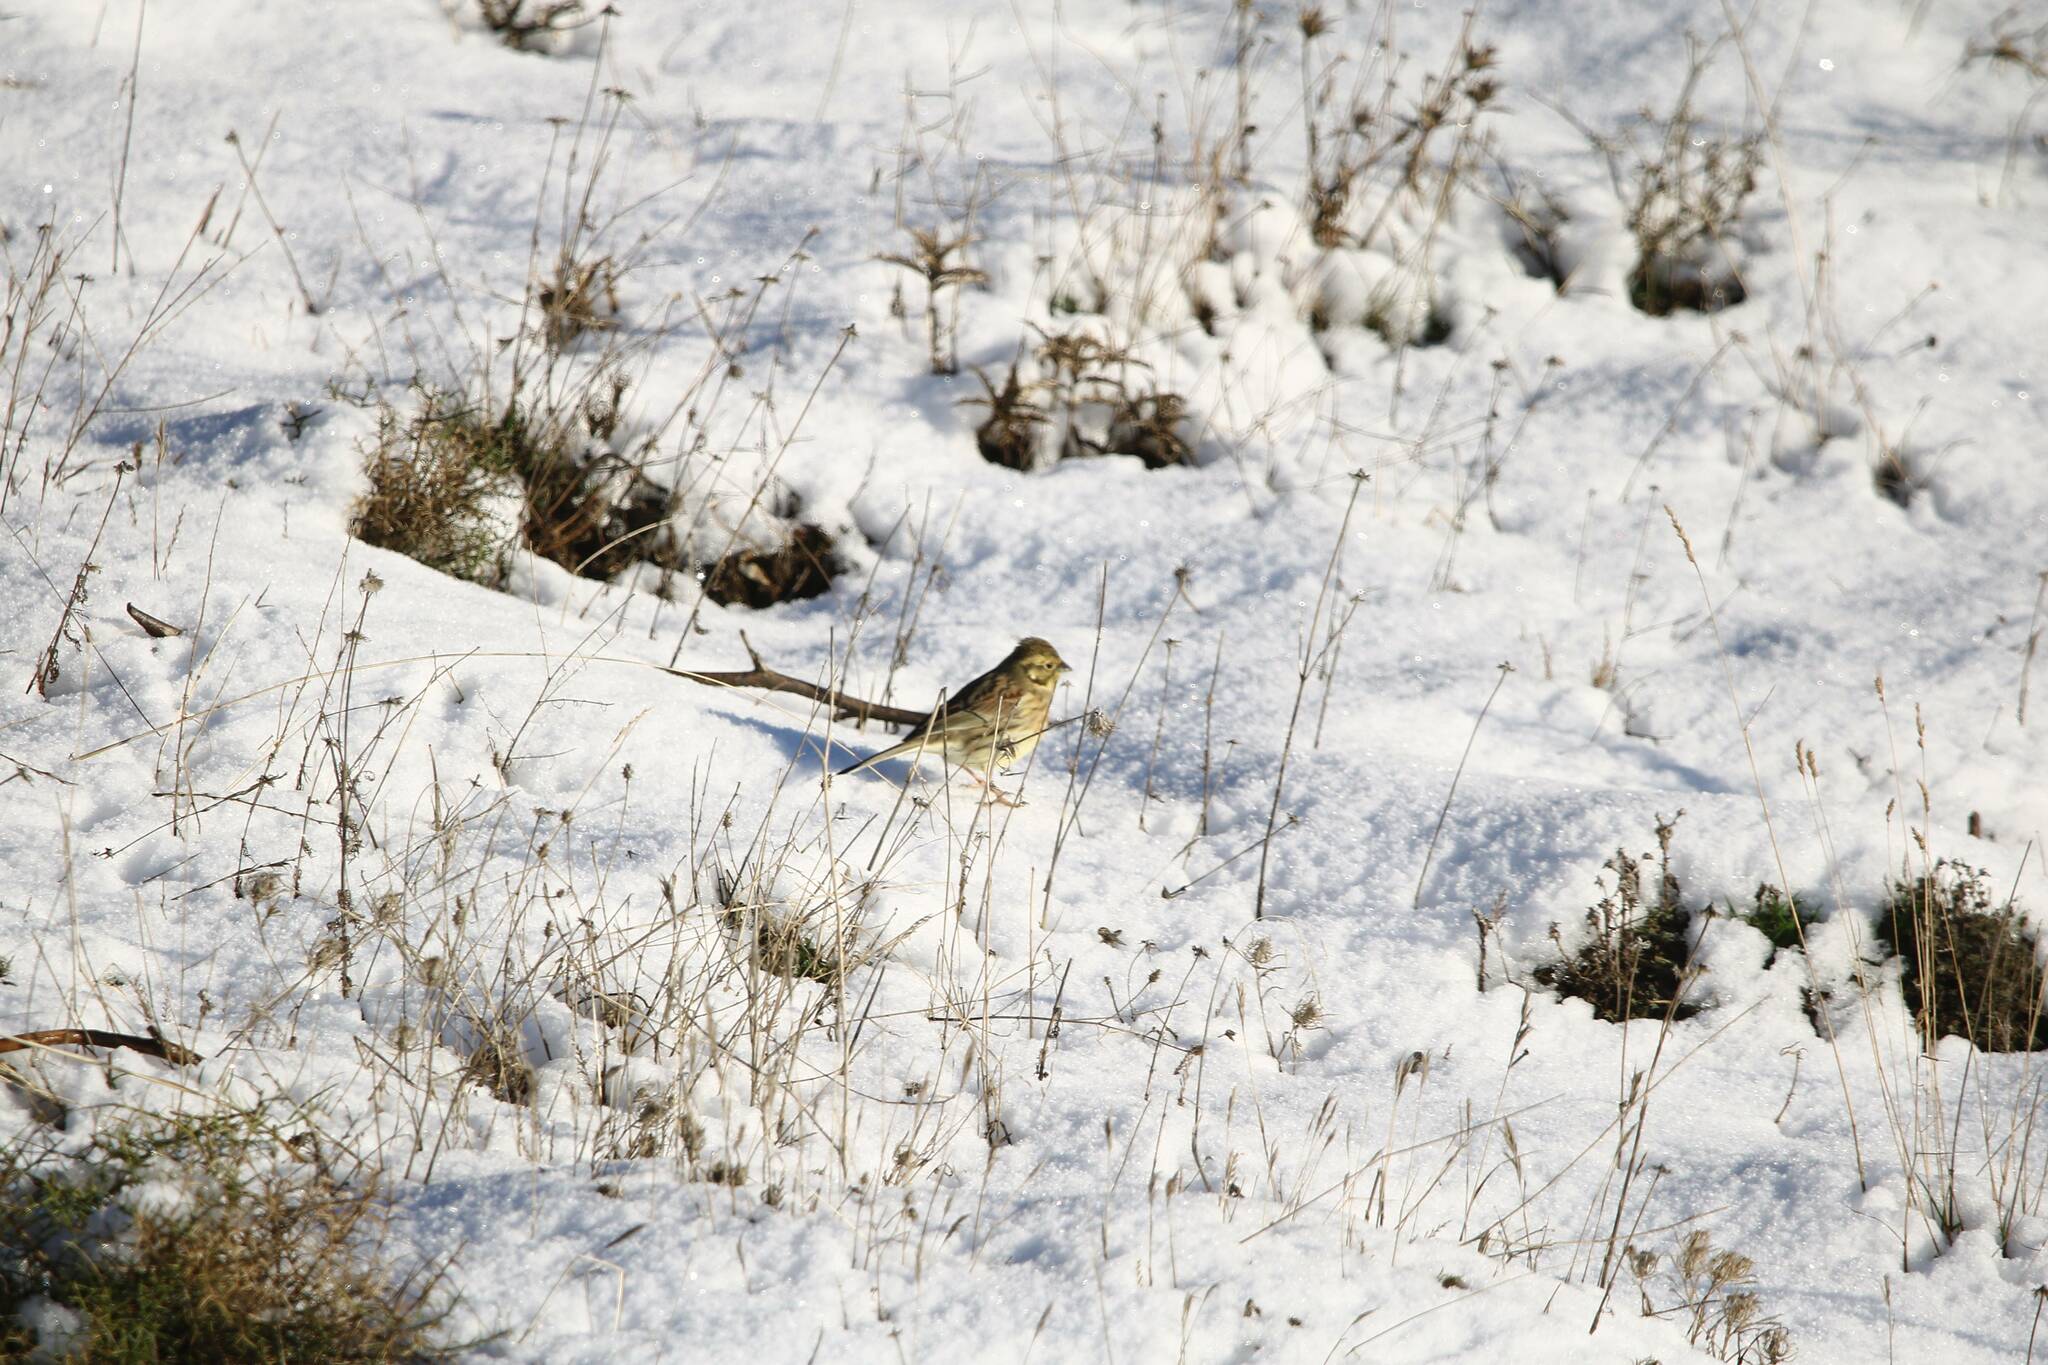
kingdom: Animalia
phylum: Chordata
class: Aves
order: Passeriformes
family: Emberizidae
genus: Emberiza
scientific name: Emberiza cirlus
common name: Cirl bunting
